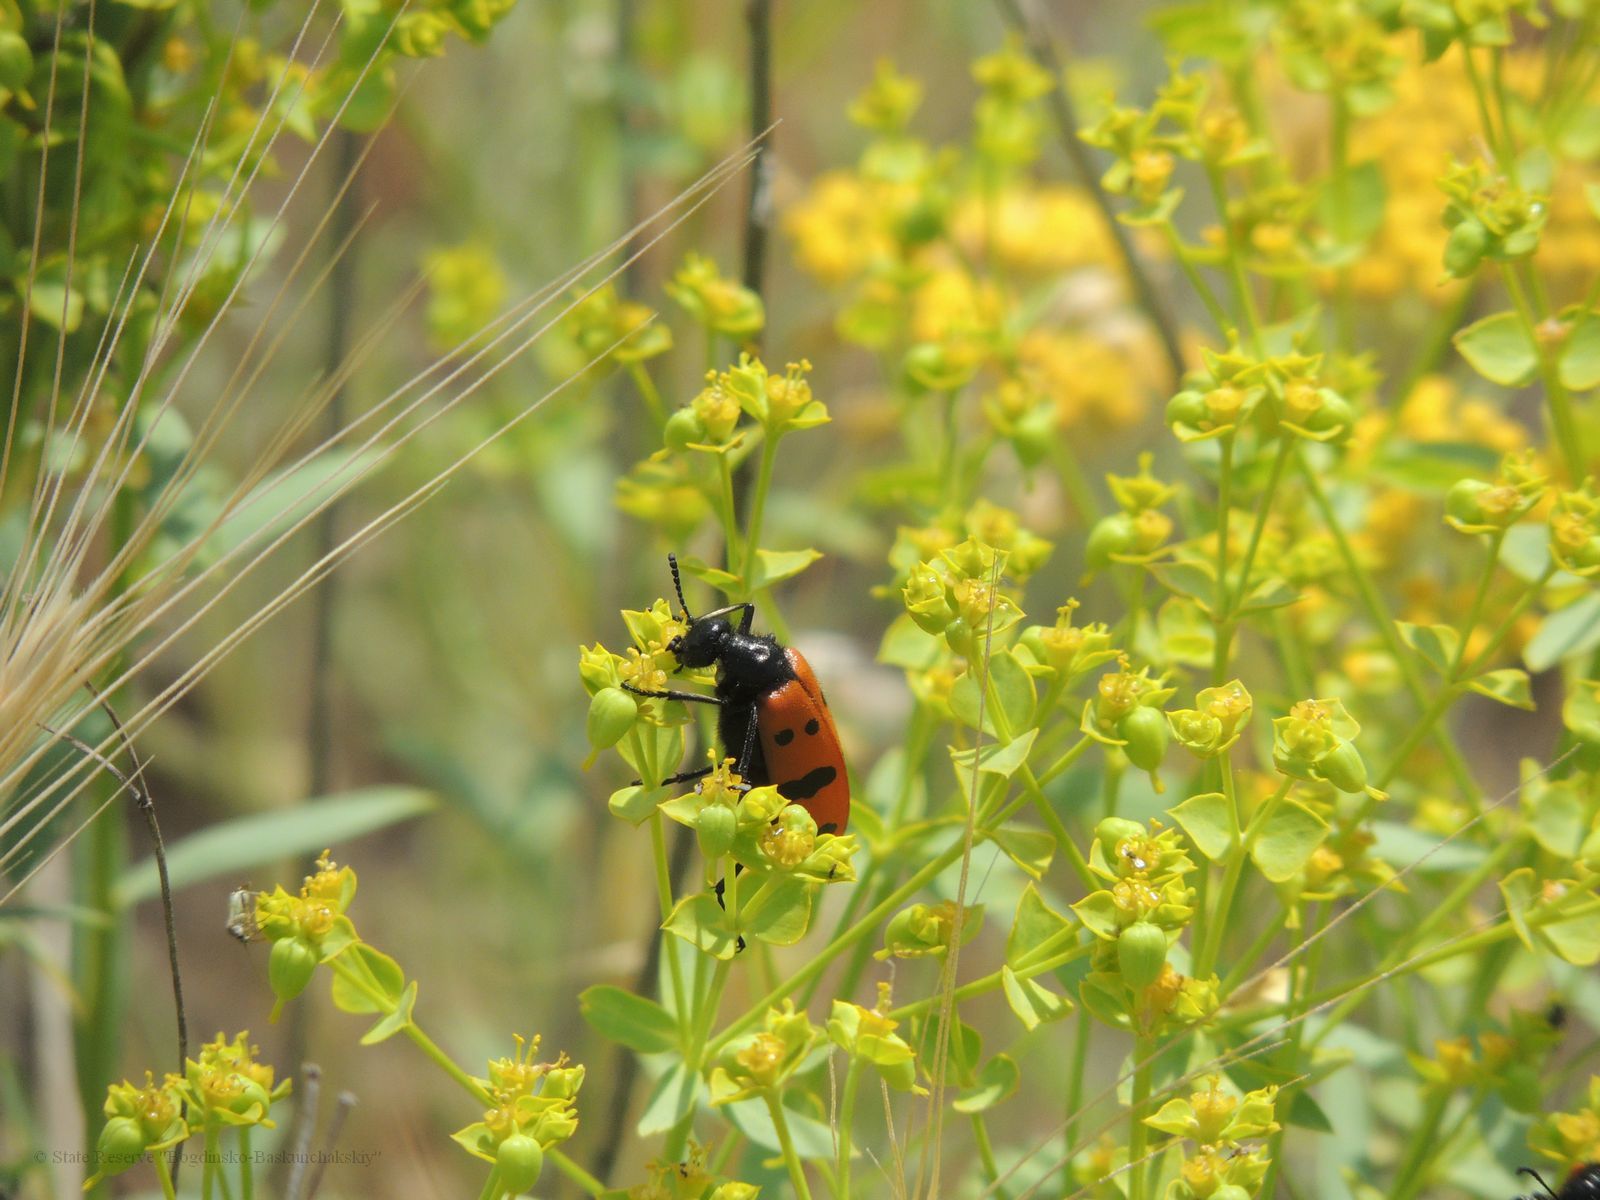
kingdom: Plantae
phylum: Tracheophyta
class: Magnoliopsida
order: Malpighiales
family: Euphorbiaceae
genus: Euphorbia
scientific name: Euphorbia seguieriana
